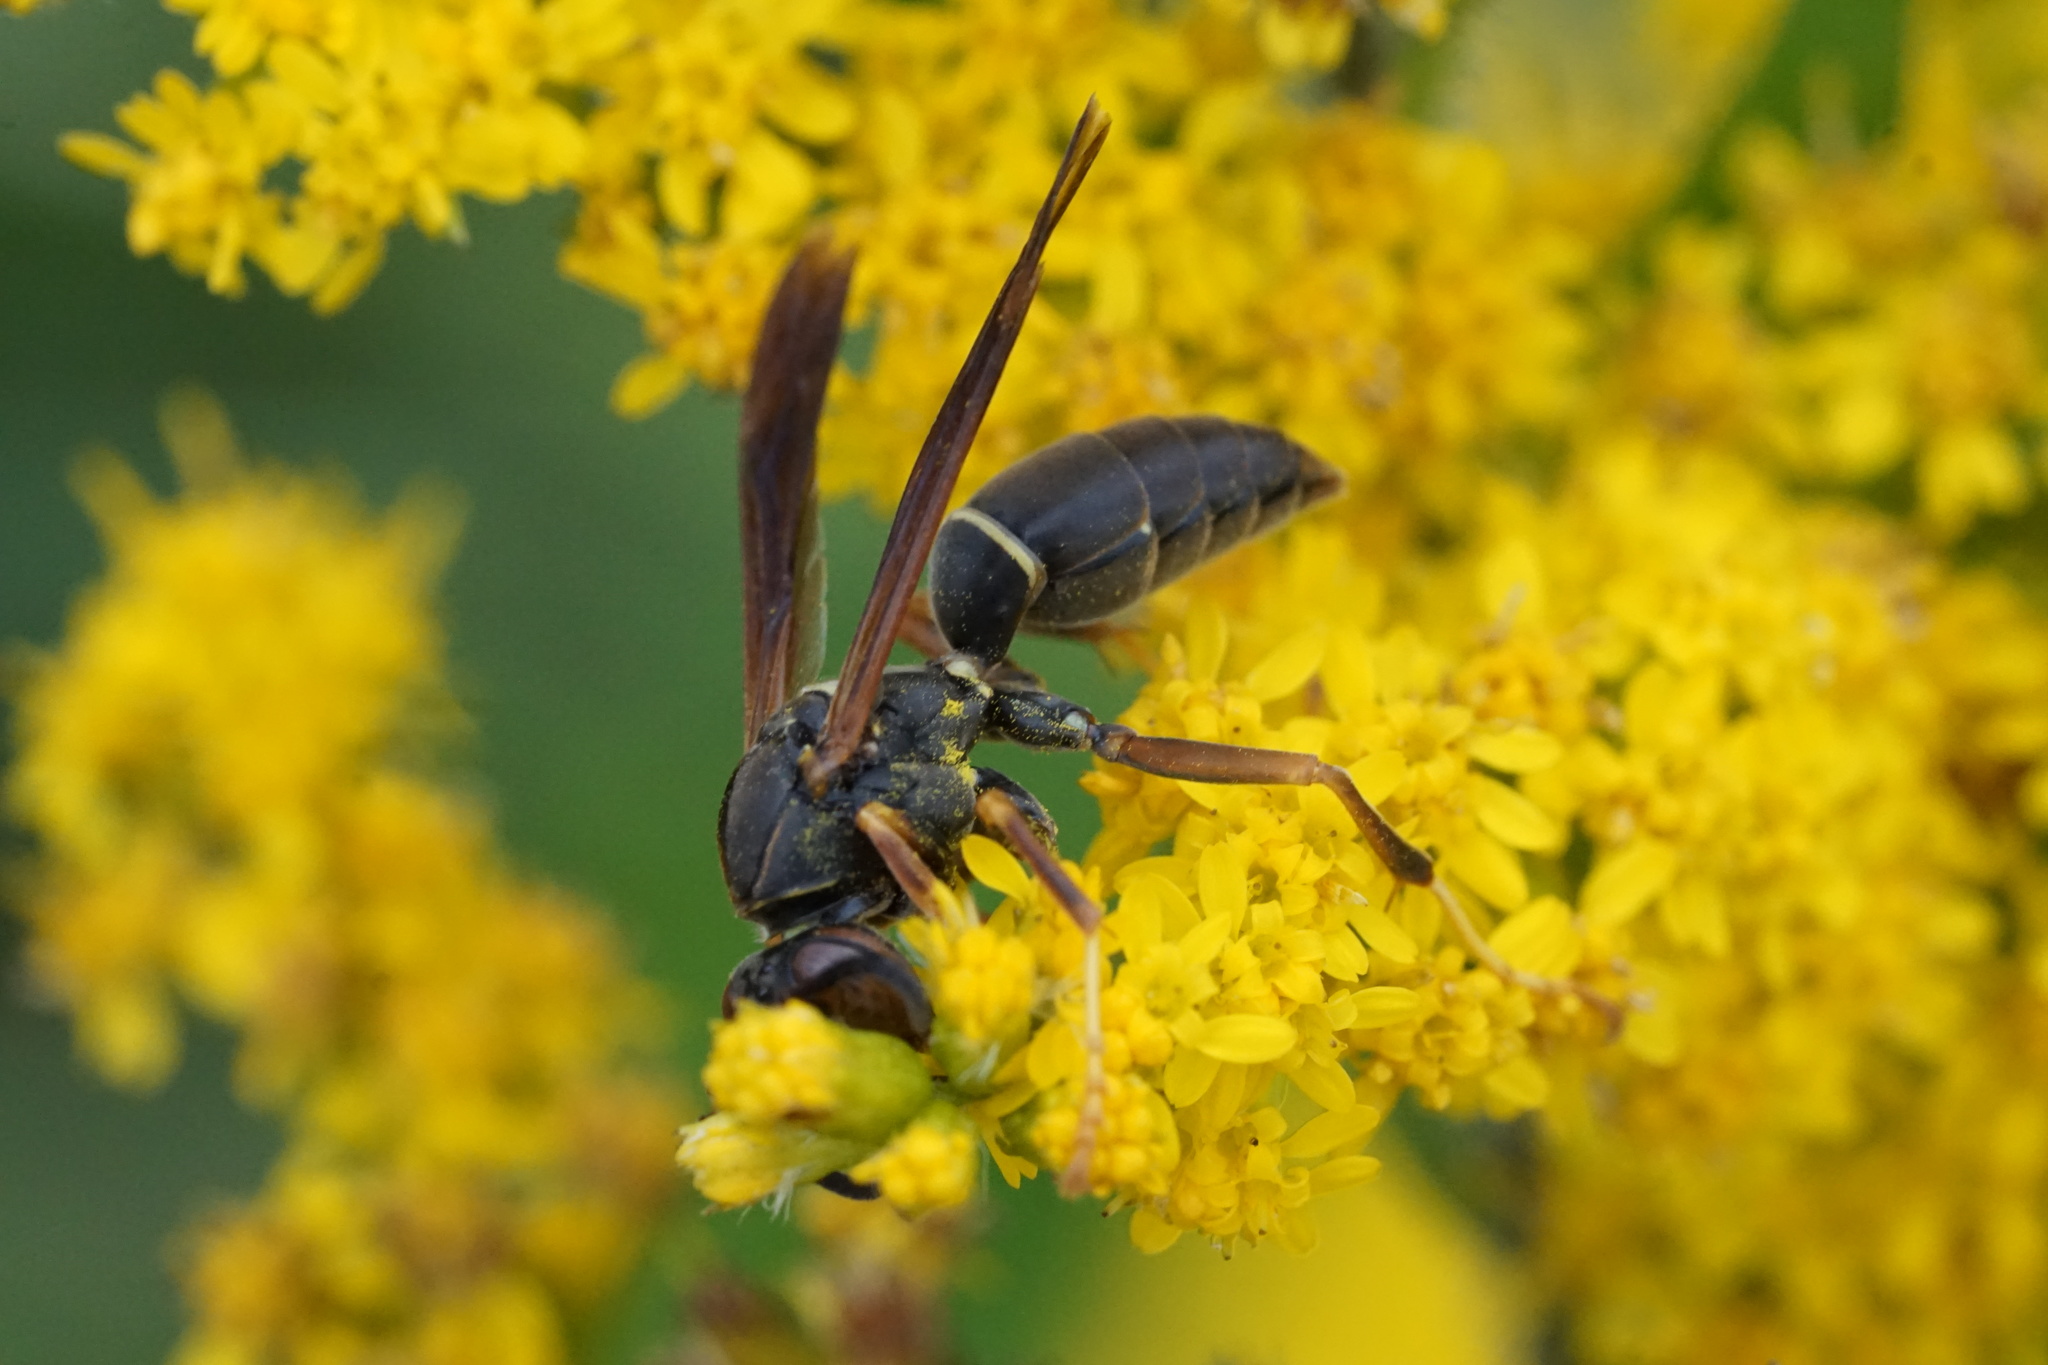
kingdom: Animalia
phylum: Arthropoda
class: Insecta
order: Hymenoptera
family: Eumenidae
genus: Polistes
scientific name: Polistes fuscatus
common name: Dark paper wasp
